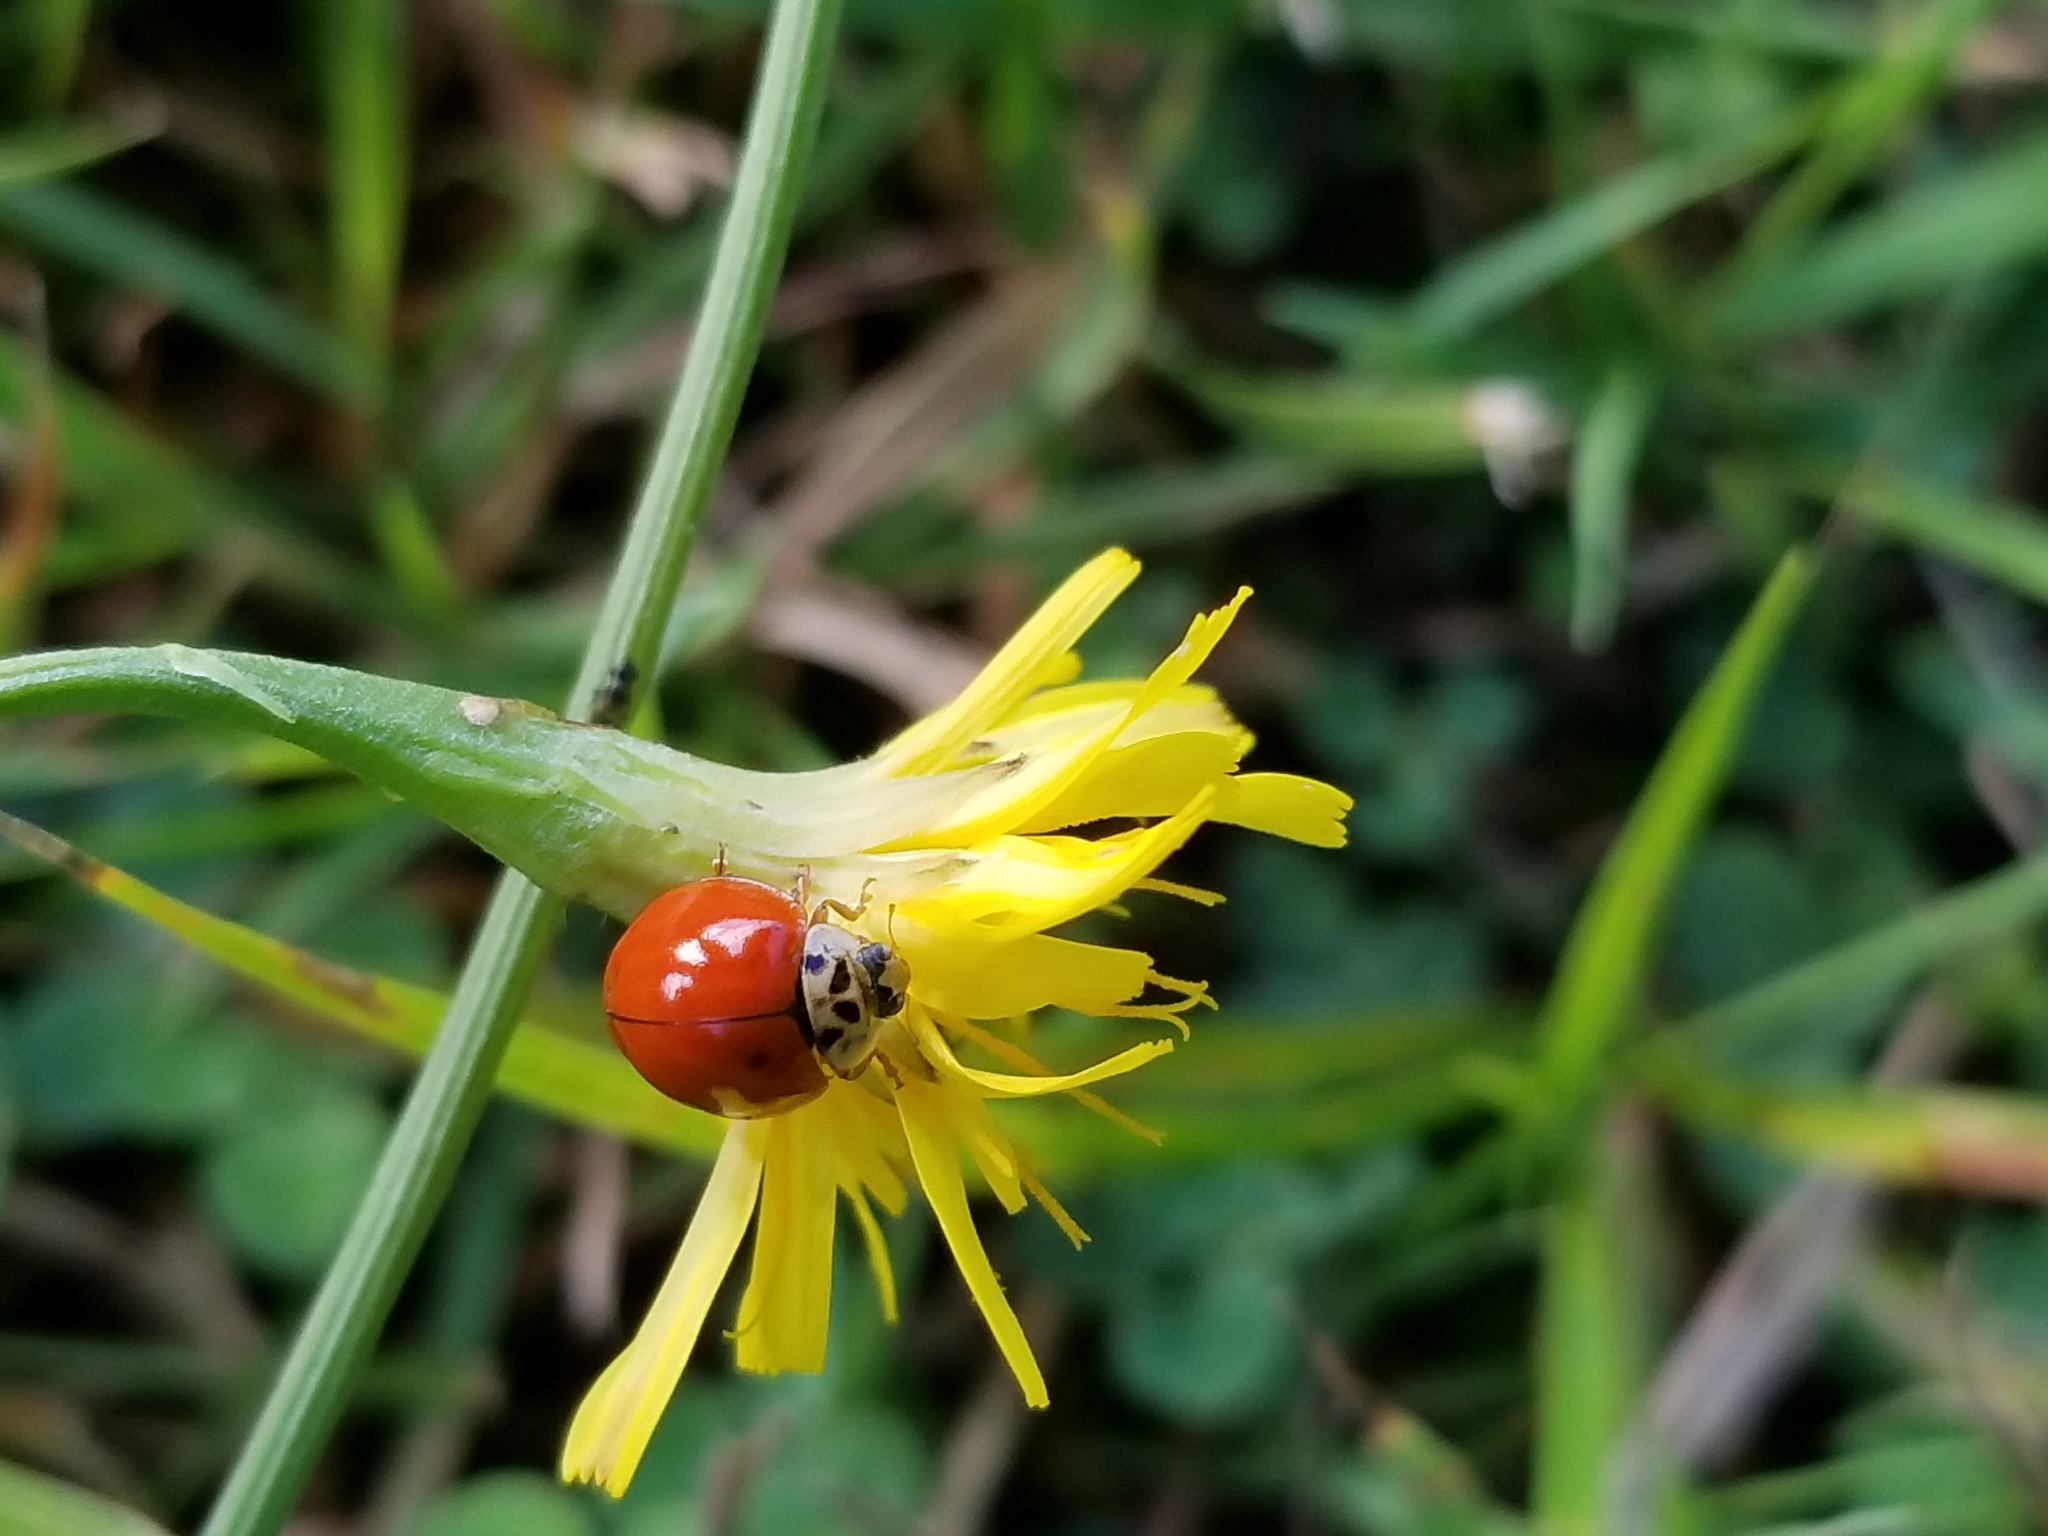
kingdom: Animalia
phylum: Arthropoda
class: Insecta
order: Coleoptera
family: Coccinellidae
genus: Harmonia
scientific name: Harmonia axyridis
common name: Harlequin ladybird
